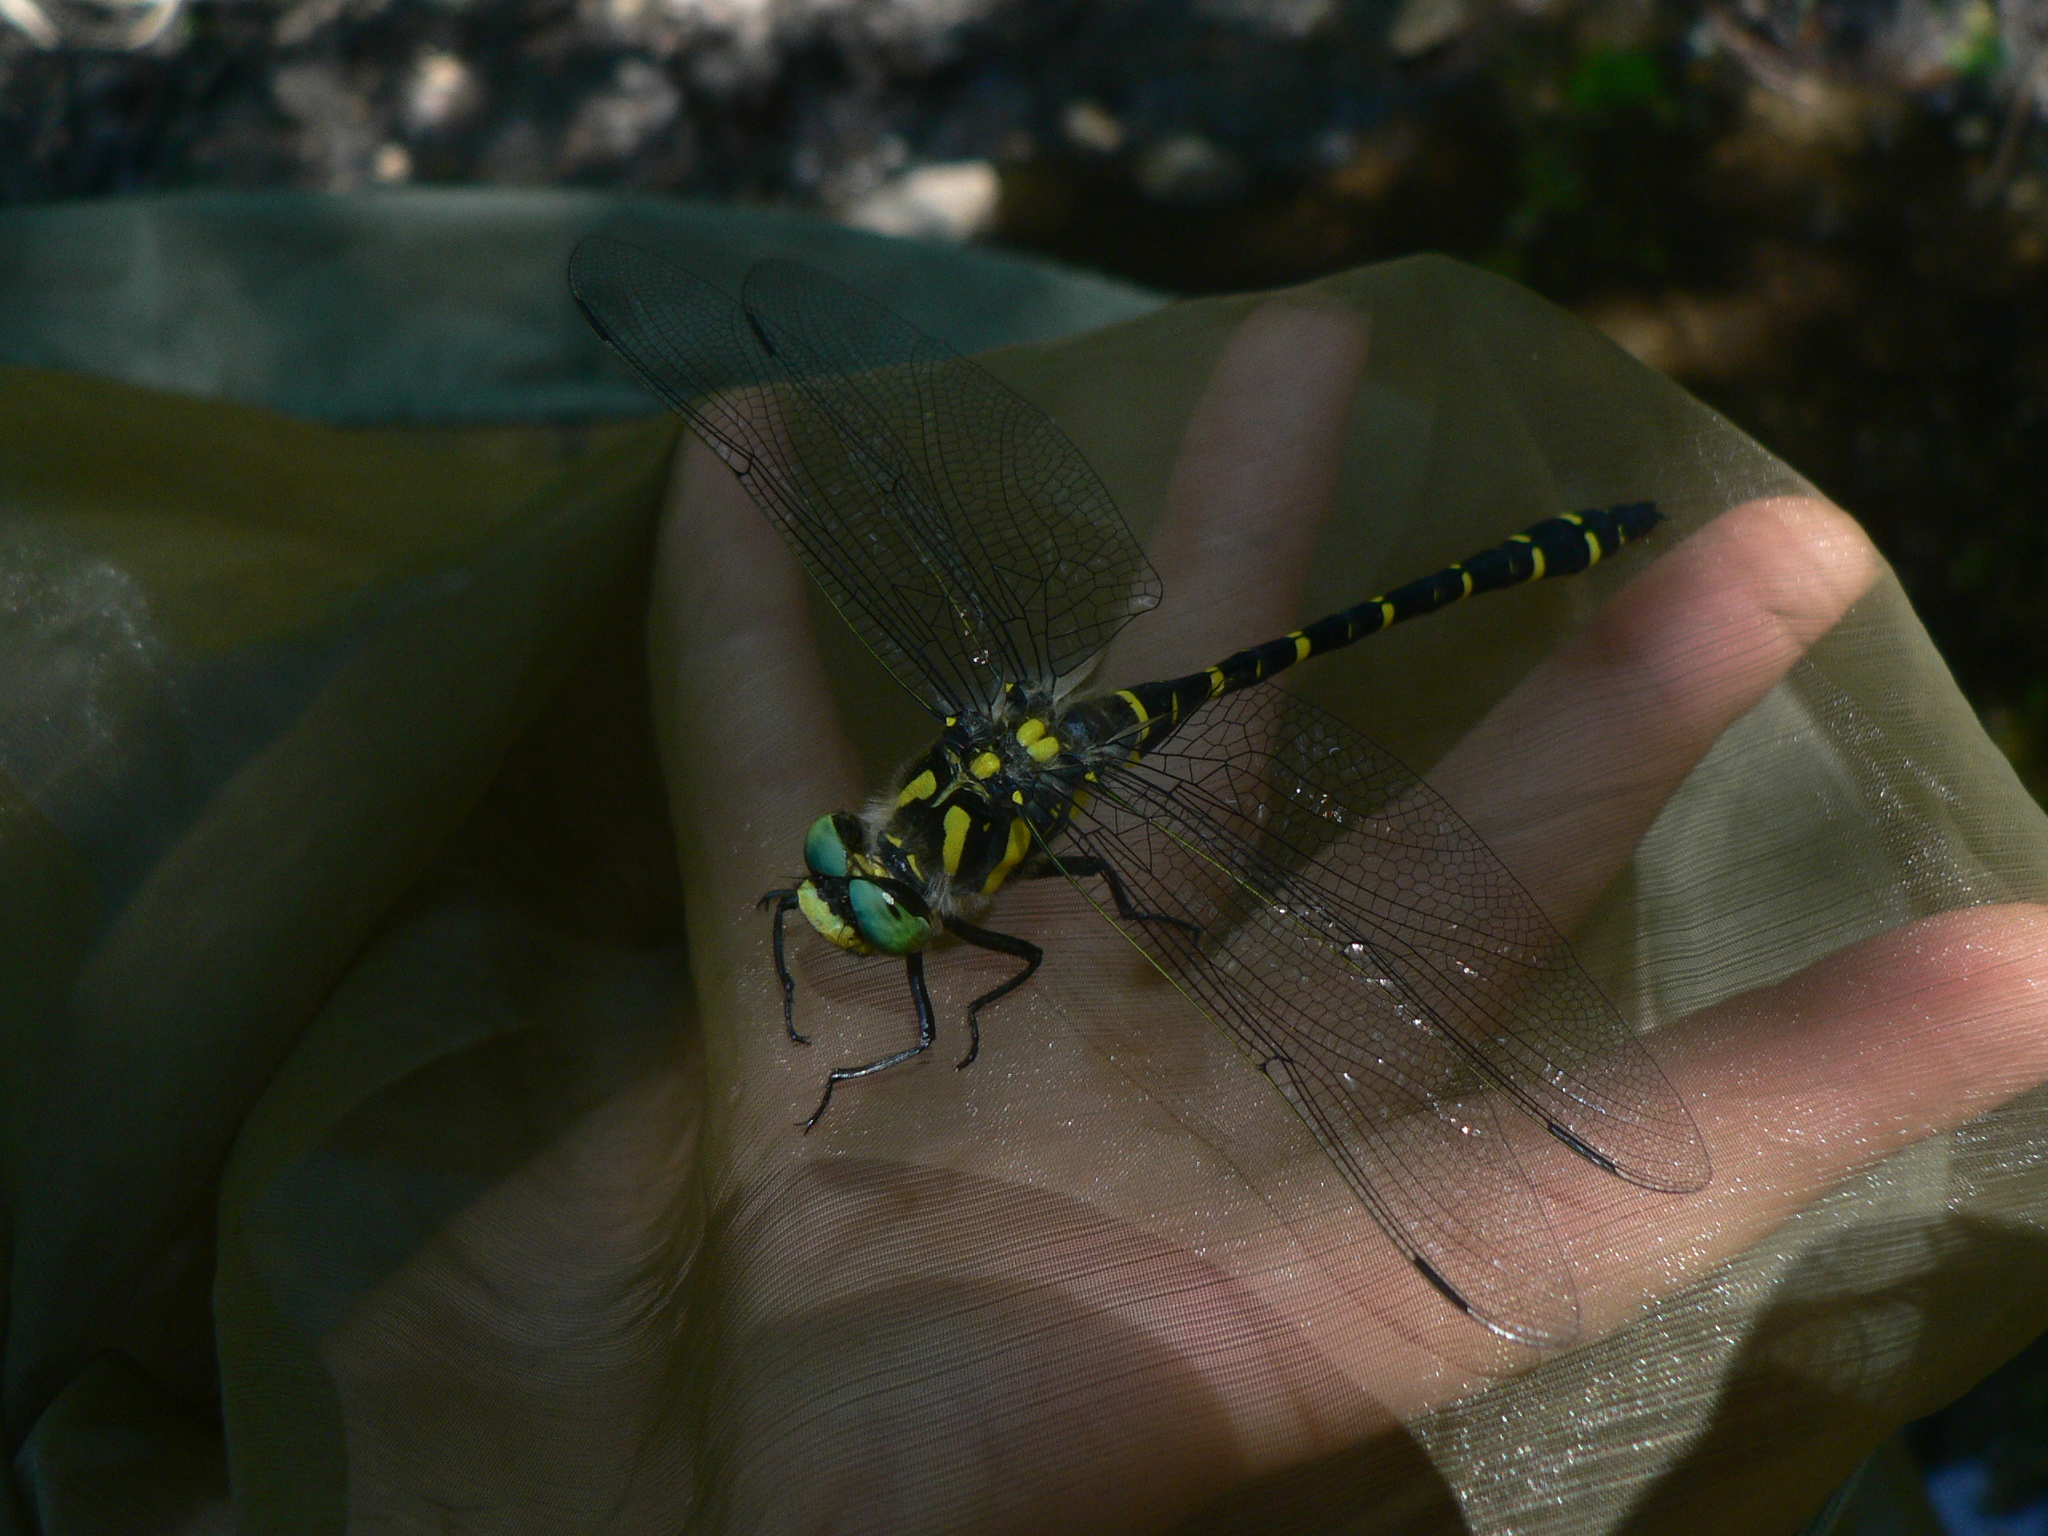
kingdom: Animalia
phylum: Arthropoda
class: Insecta
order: Odonata
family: Cordulegastridae
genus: Cordulegaster
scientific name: Cordulegaster boltonii
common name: Golden-ringed dragonfly
